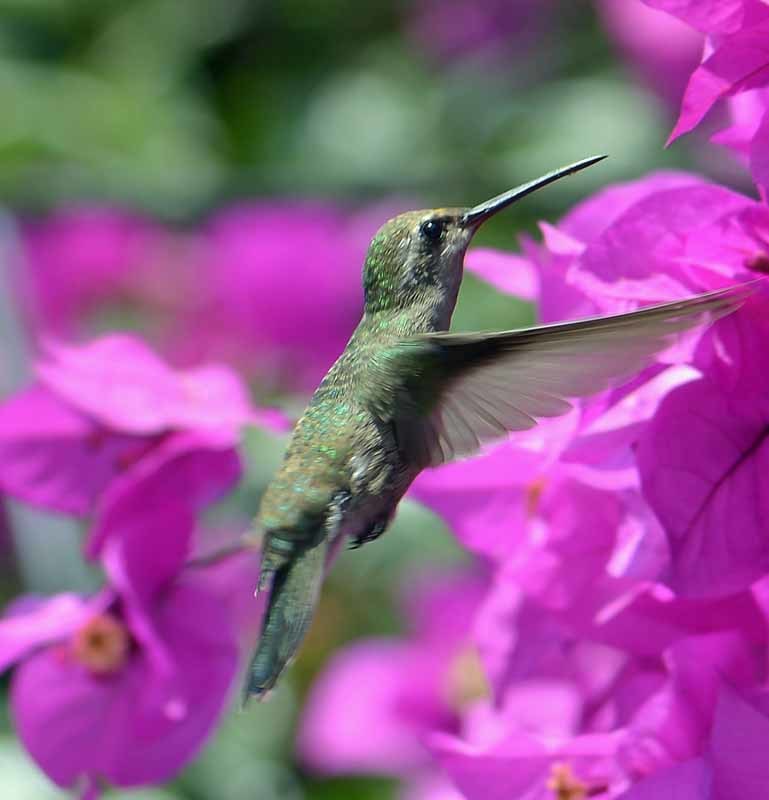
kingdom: Animalia
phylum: Chordata
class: Aves
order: Apodiformes
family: Trochilidae
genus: Cynanthus
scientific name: Cynanthus latirostris
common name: Broad-billed hummingbird
